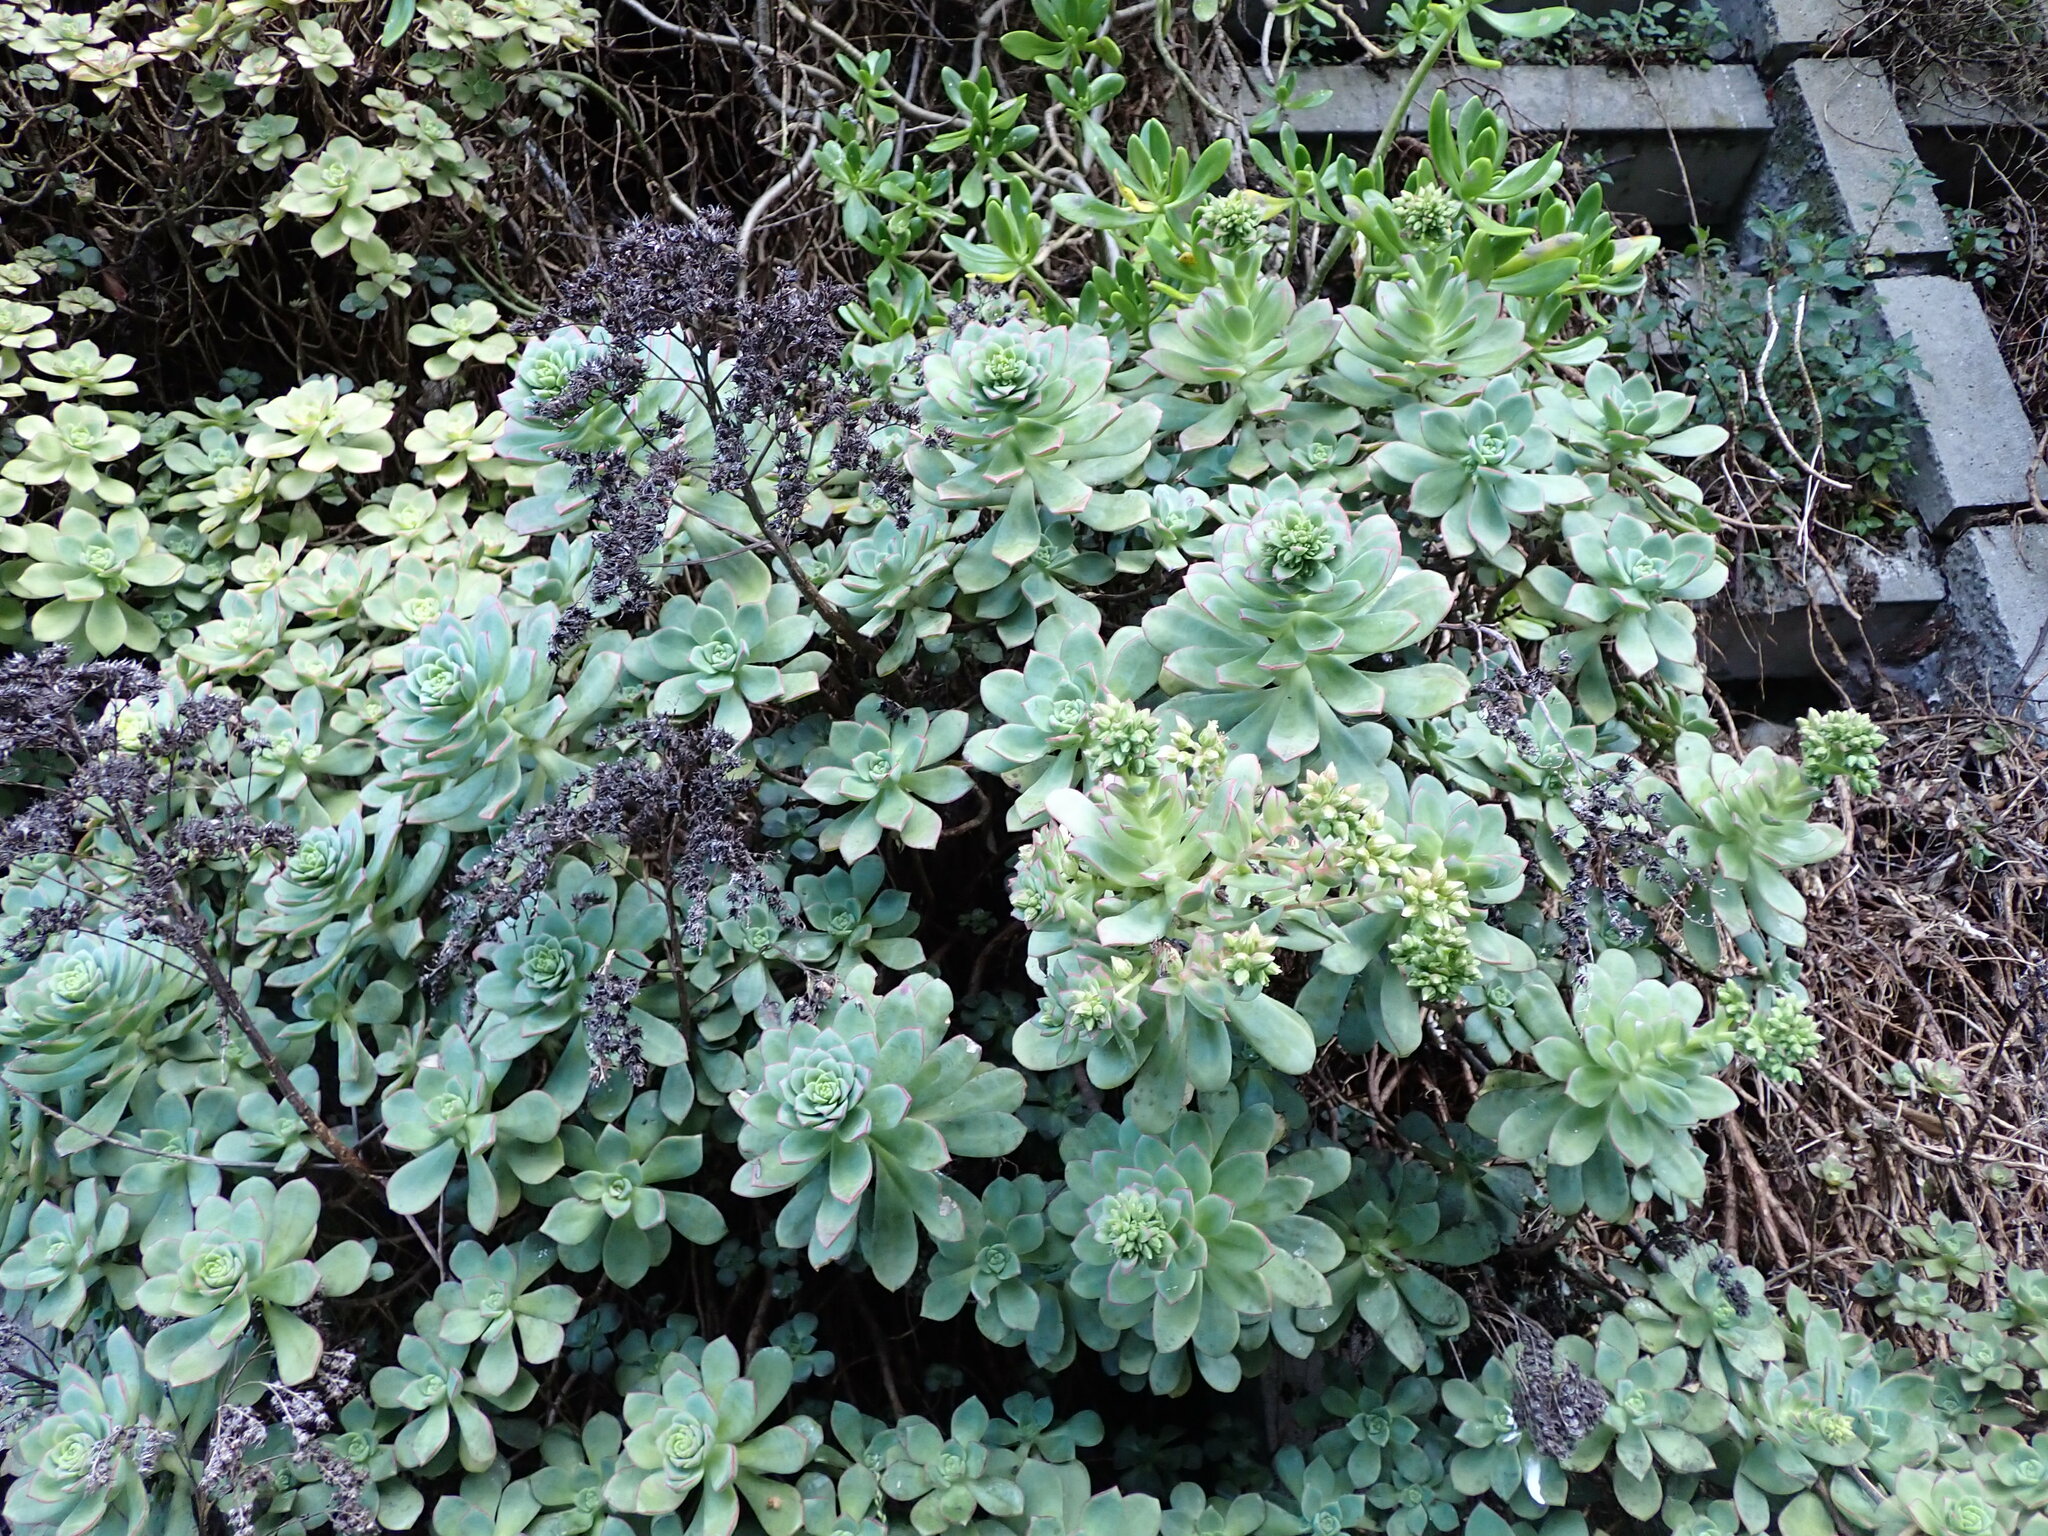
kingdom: Plantae
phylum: Tracheophyta
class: Magnoliopsida
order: Saxifragales
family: Crassulaceae
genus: Aeonium
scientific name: Aeonium haworthii
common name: Haworth's aeonium
